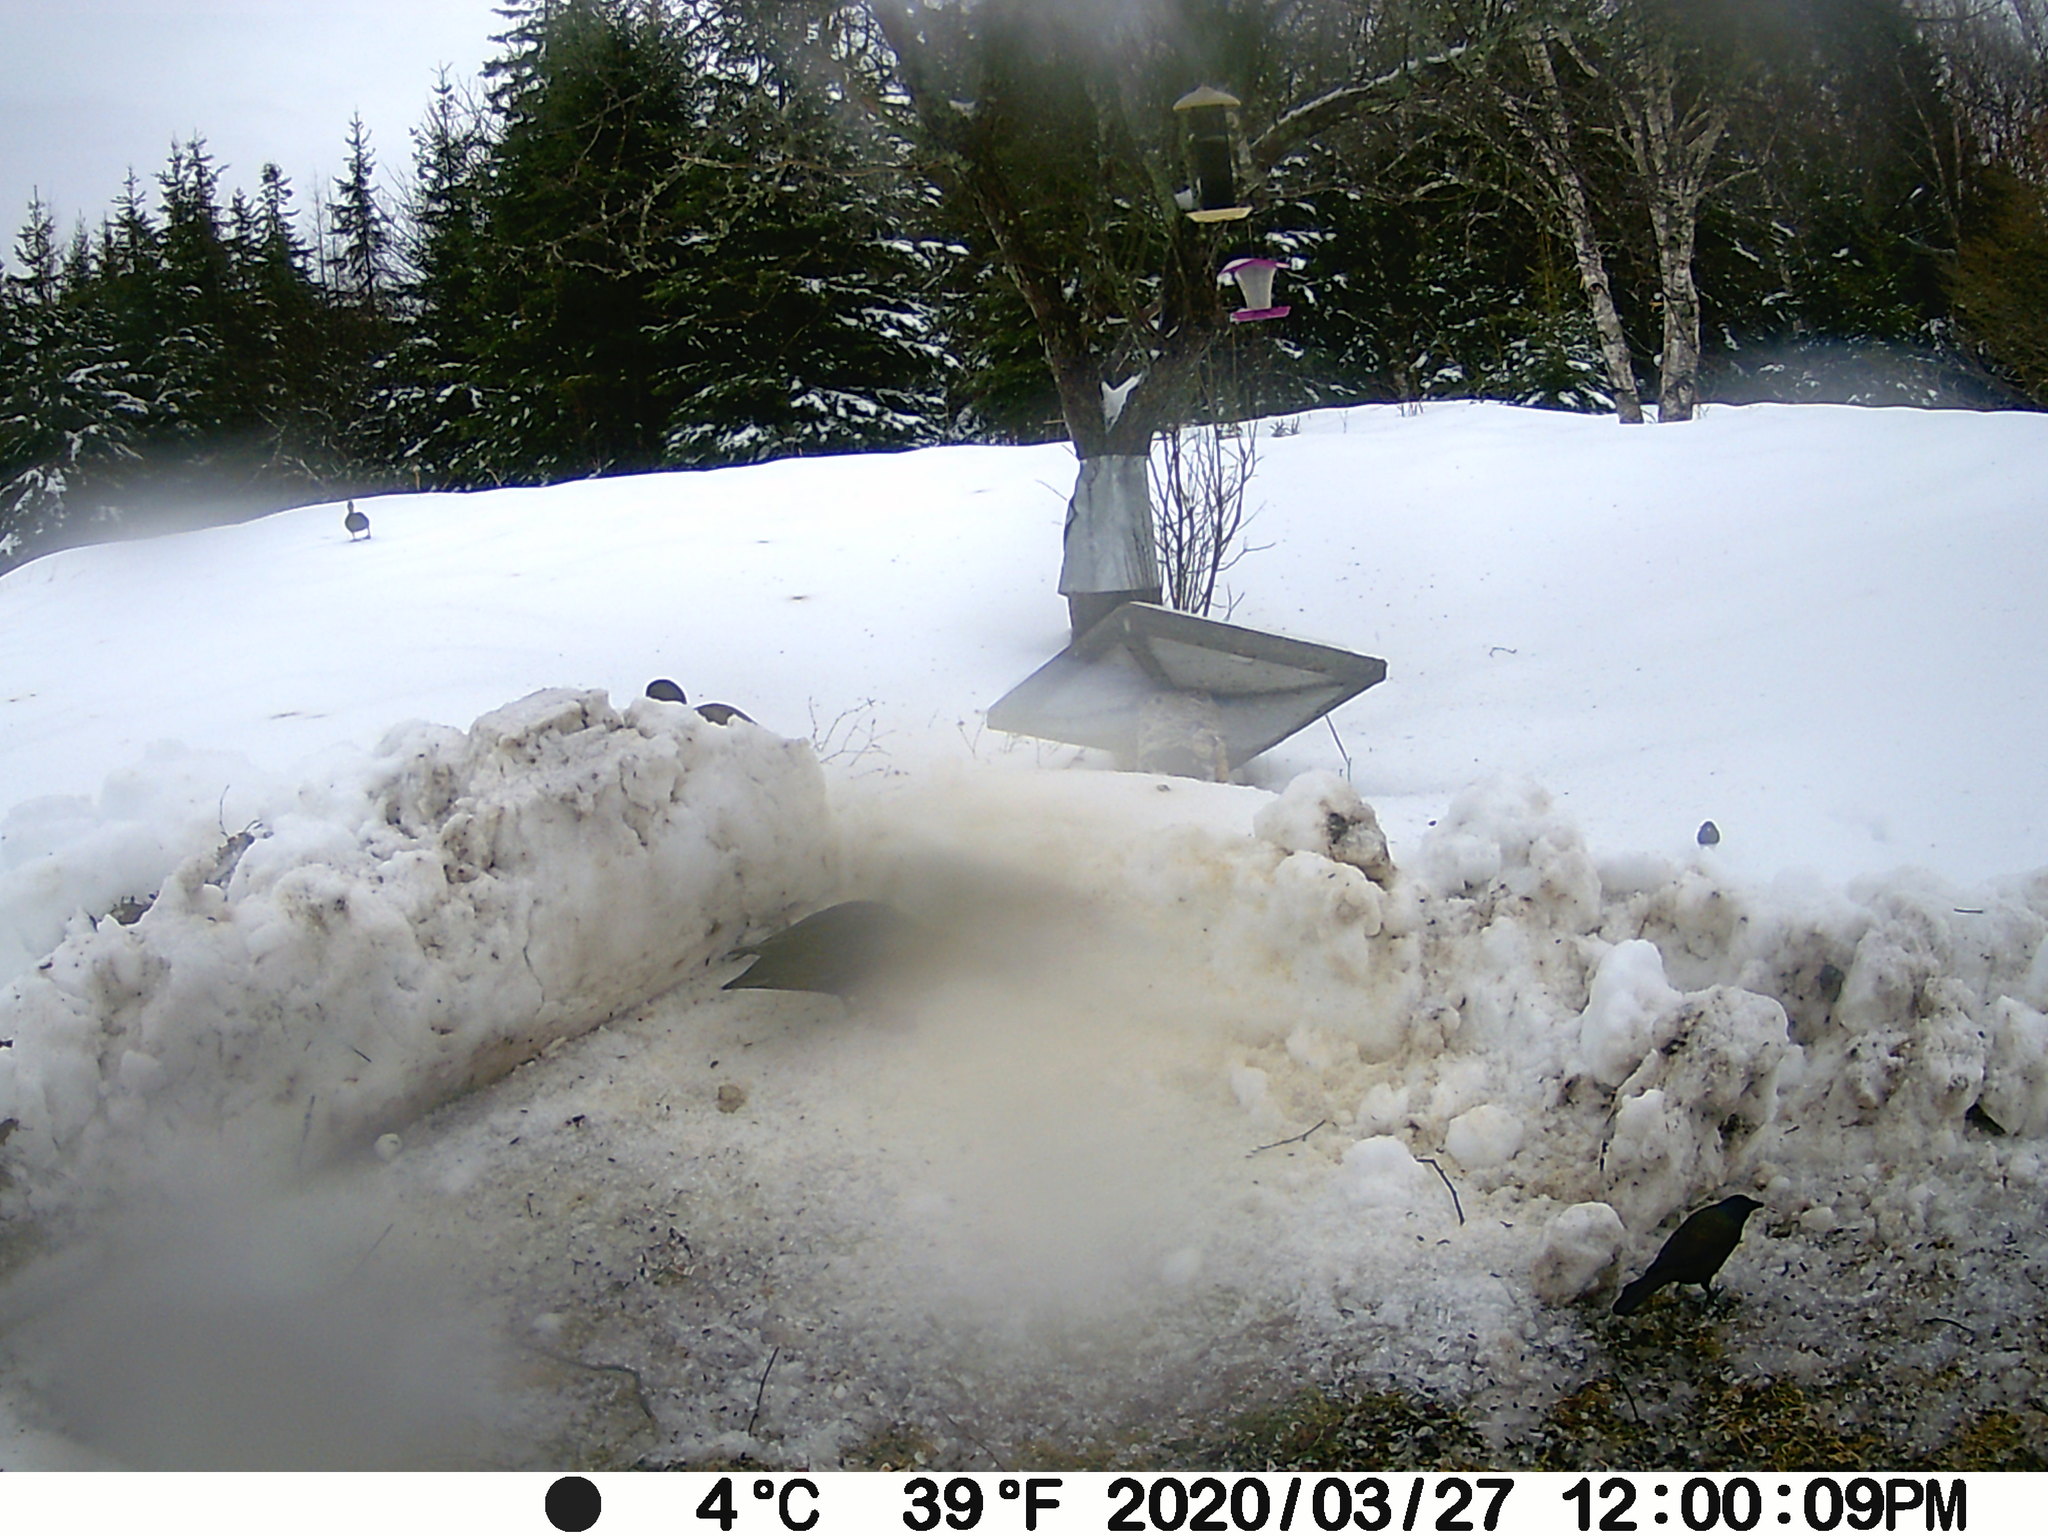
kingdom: Animalia
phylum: Chordata
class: Aves
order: Passeriformes
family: Icteridae
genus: Quiscalus
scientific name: Quiscalus quiscula
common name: Common grackle
